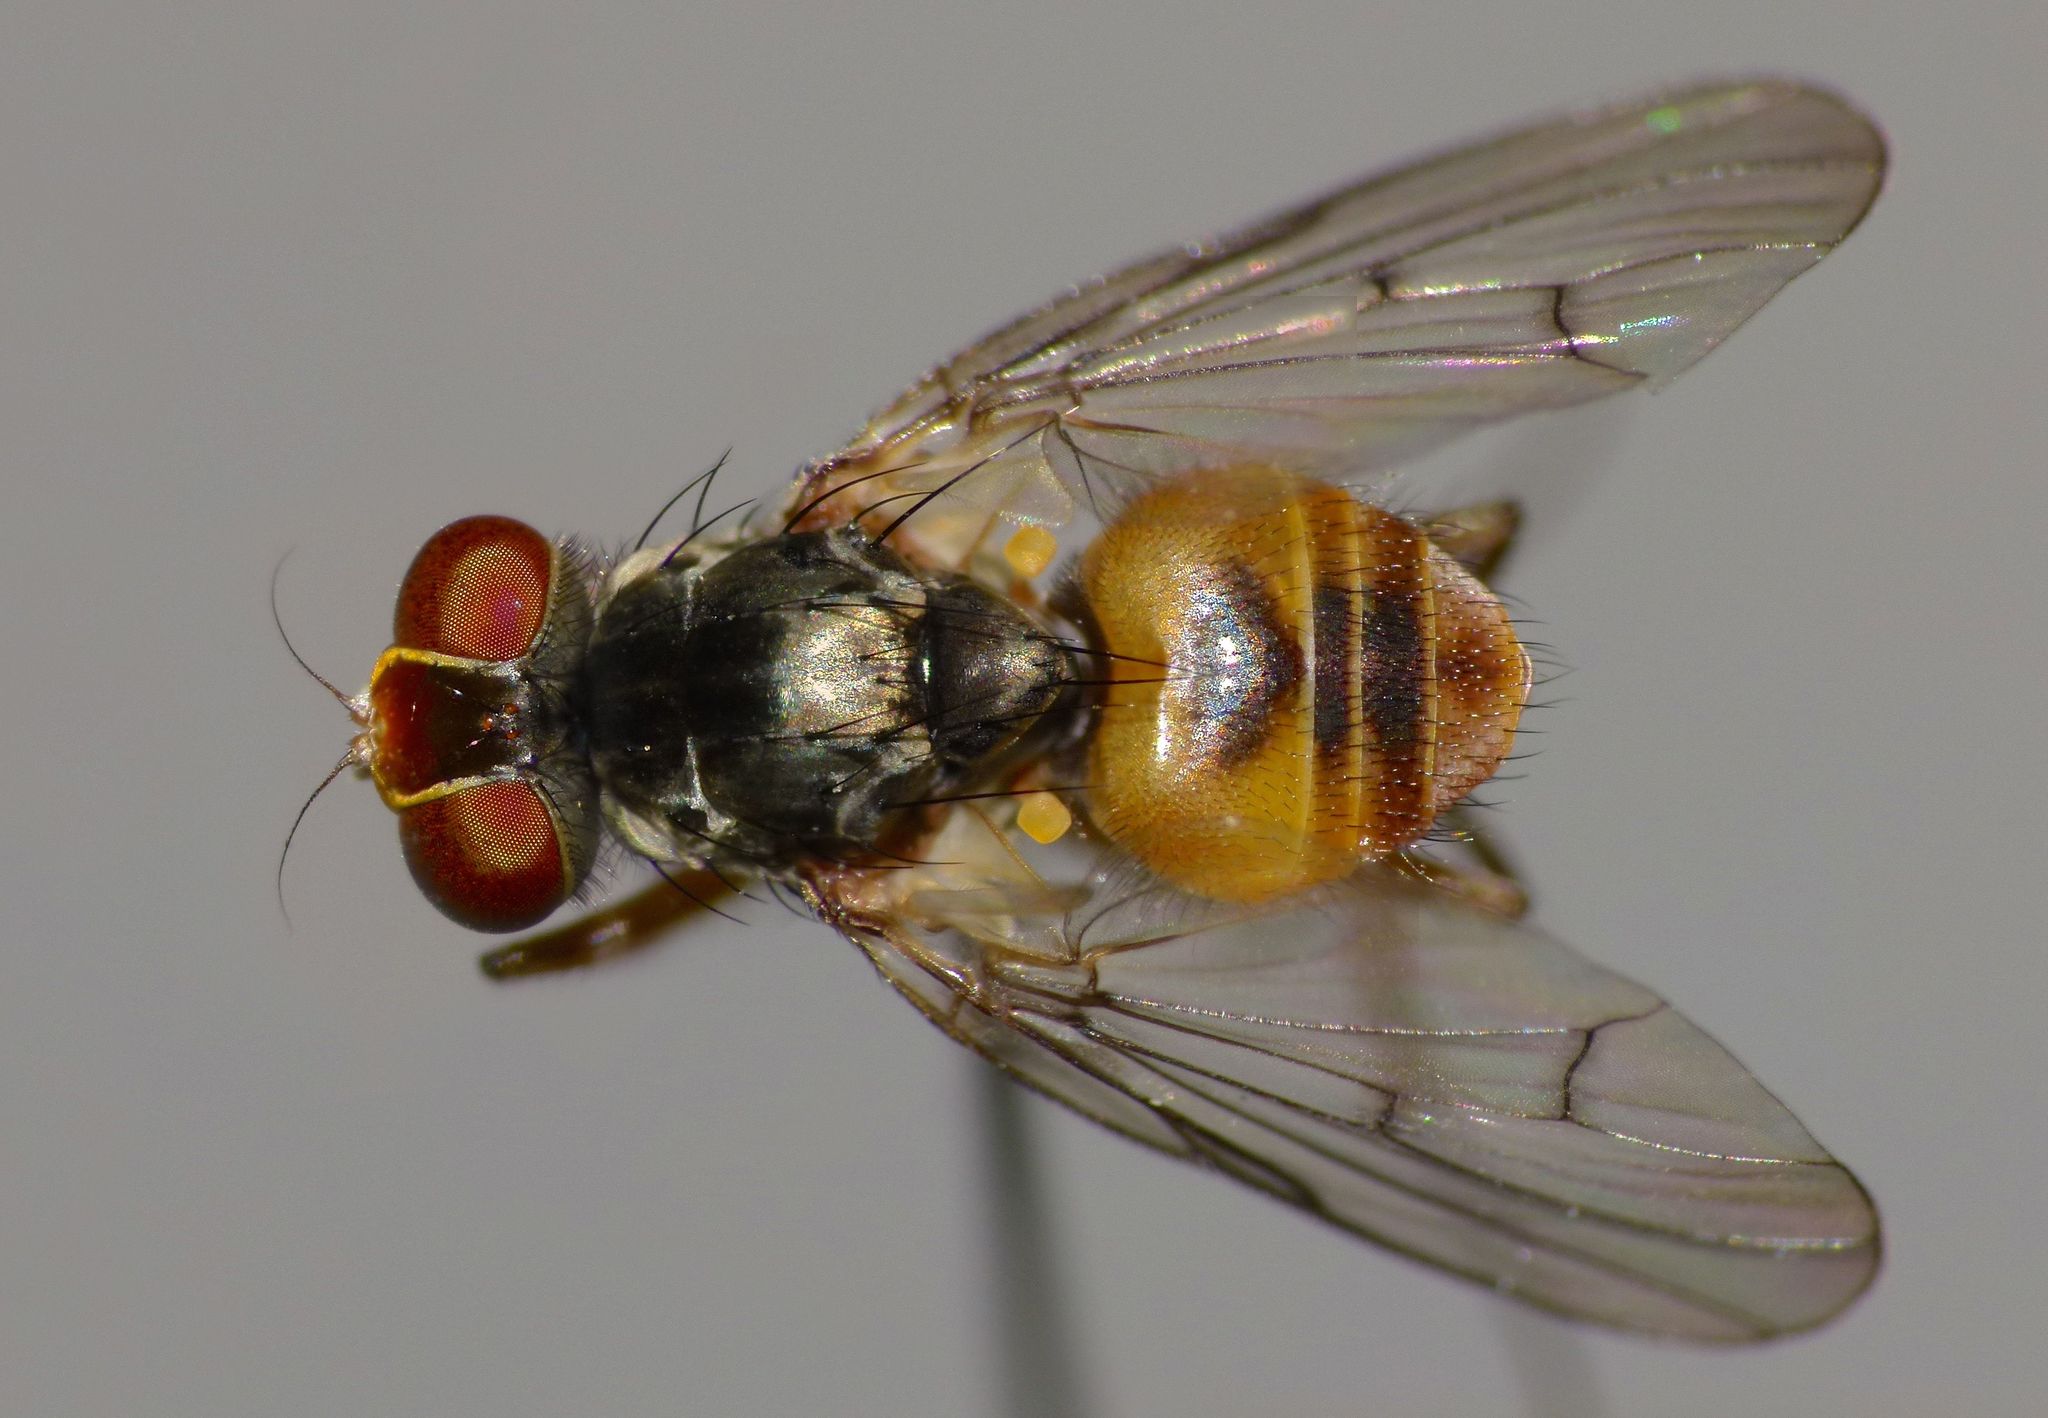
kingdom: Animalia
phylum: Arthropoda
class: Insecta
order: Diptera
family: Muscidae
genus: Spilogona
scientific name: Spilogona latimanus
